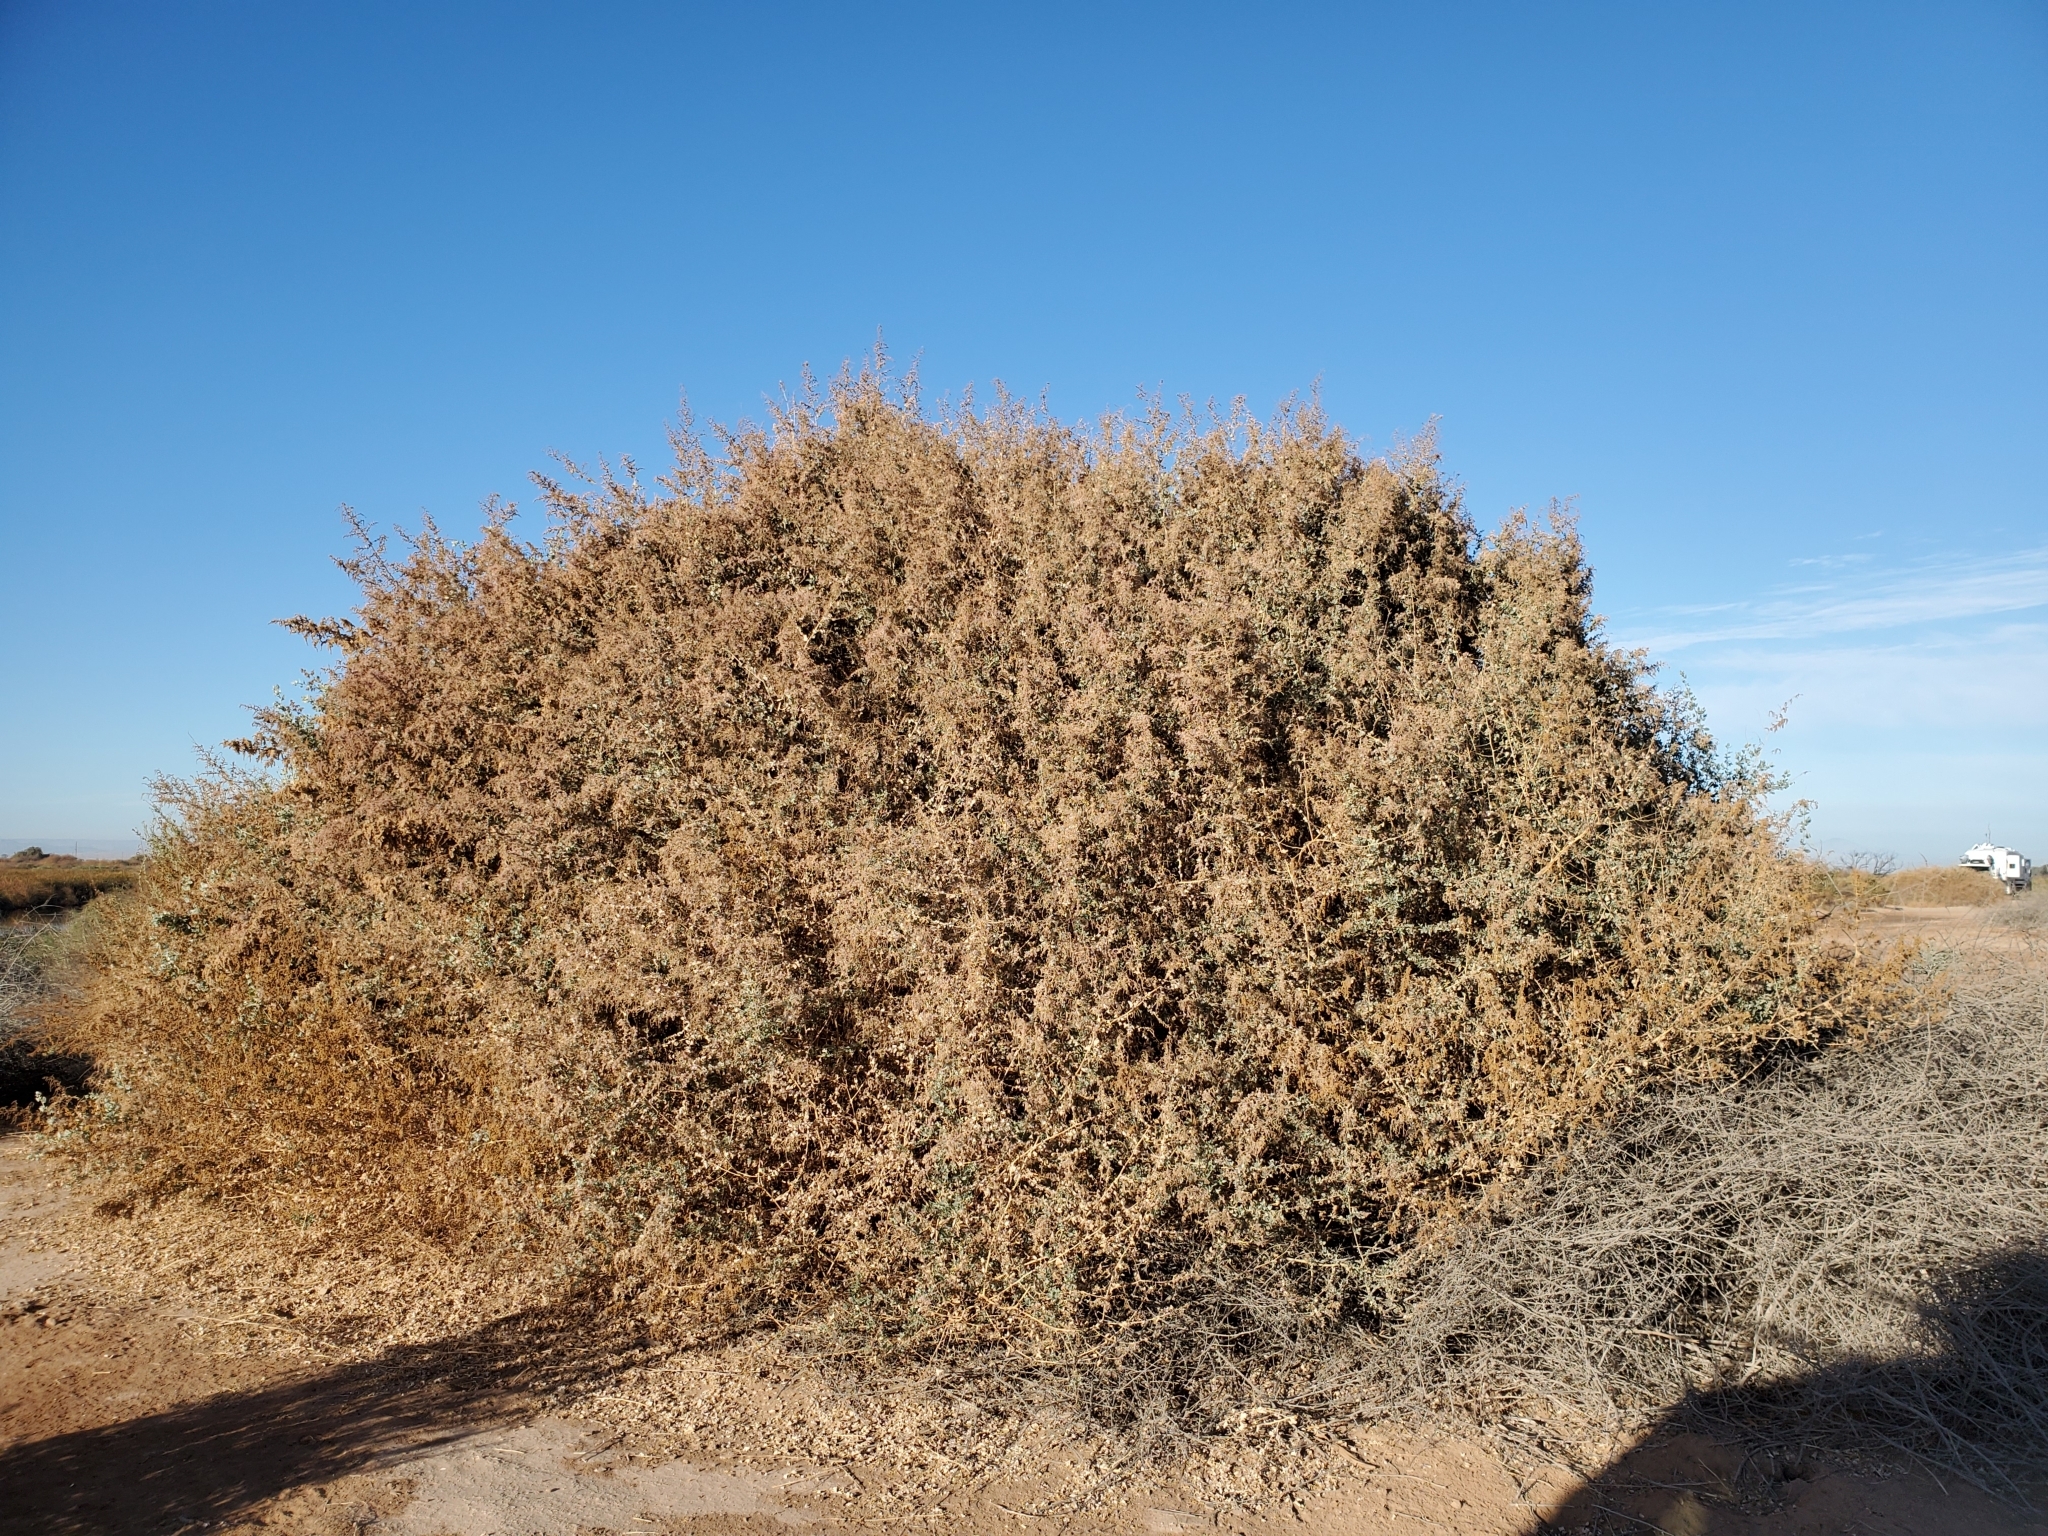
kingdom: Plantae
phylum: Tracheophyta
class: Magnoliopsida
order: Caryophyllales
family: Amaranthaceae
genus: Atriplex
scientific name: Atriplex lentiformis
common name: Big saltbush
